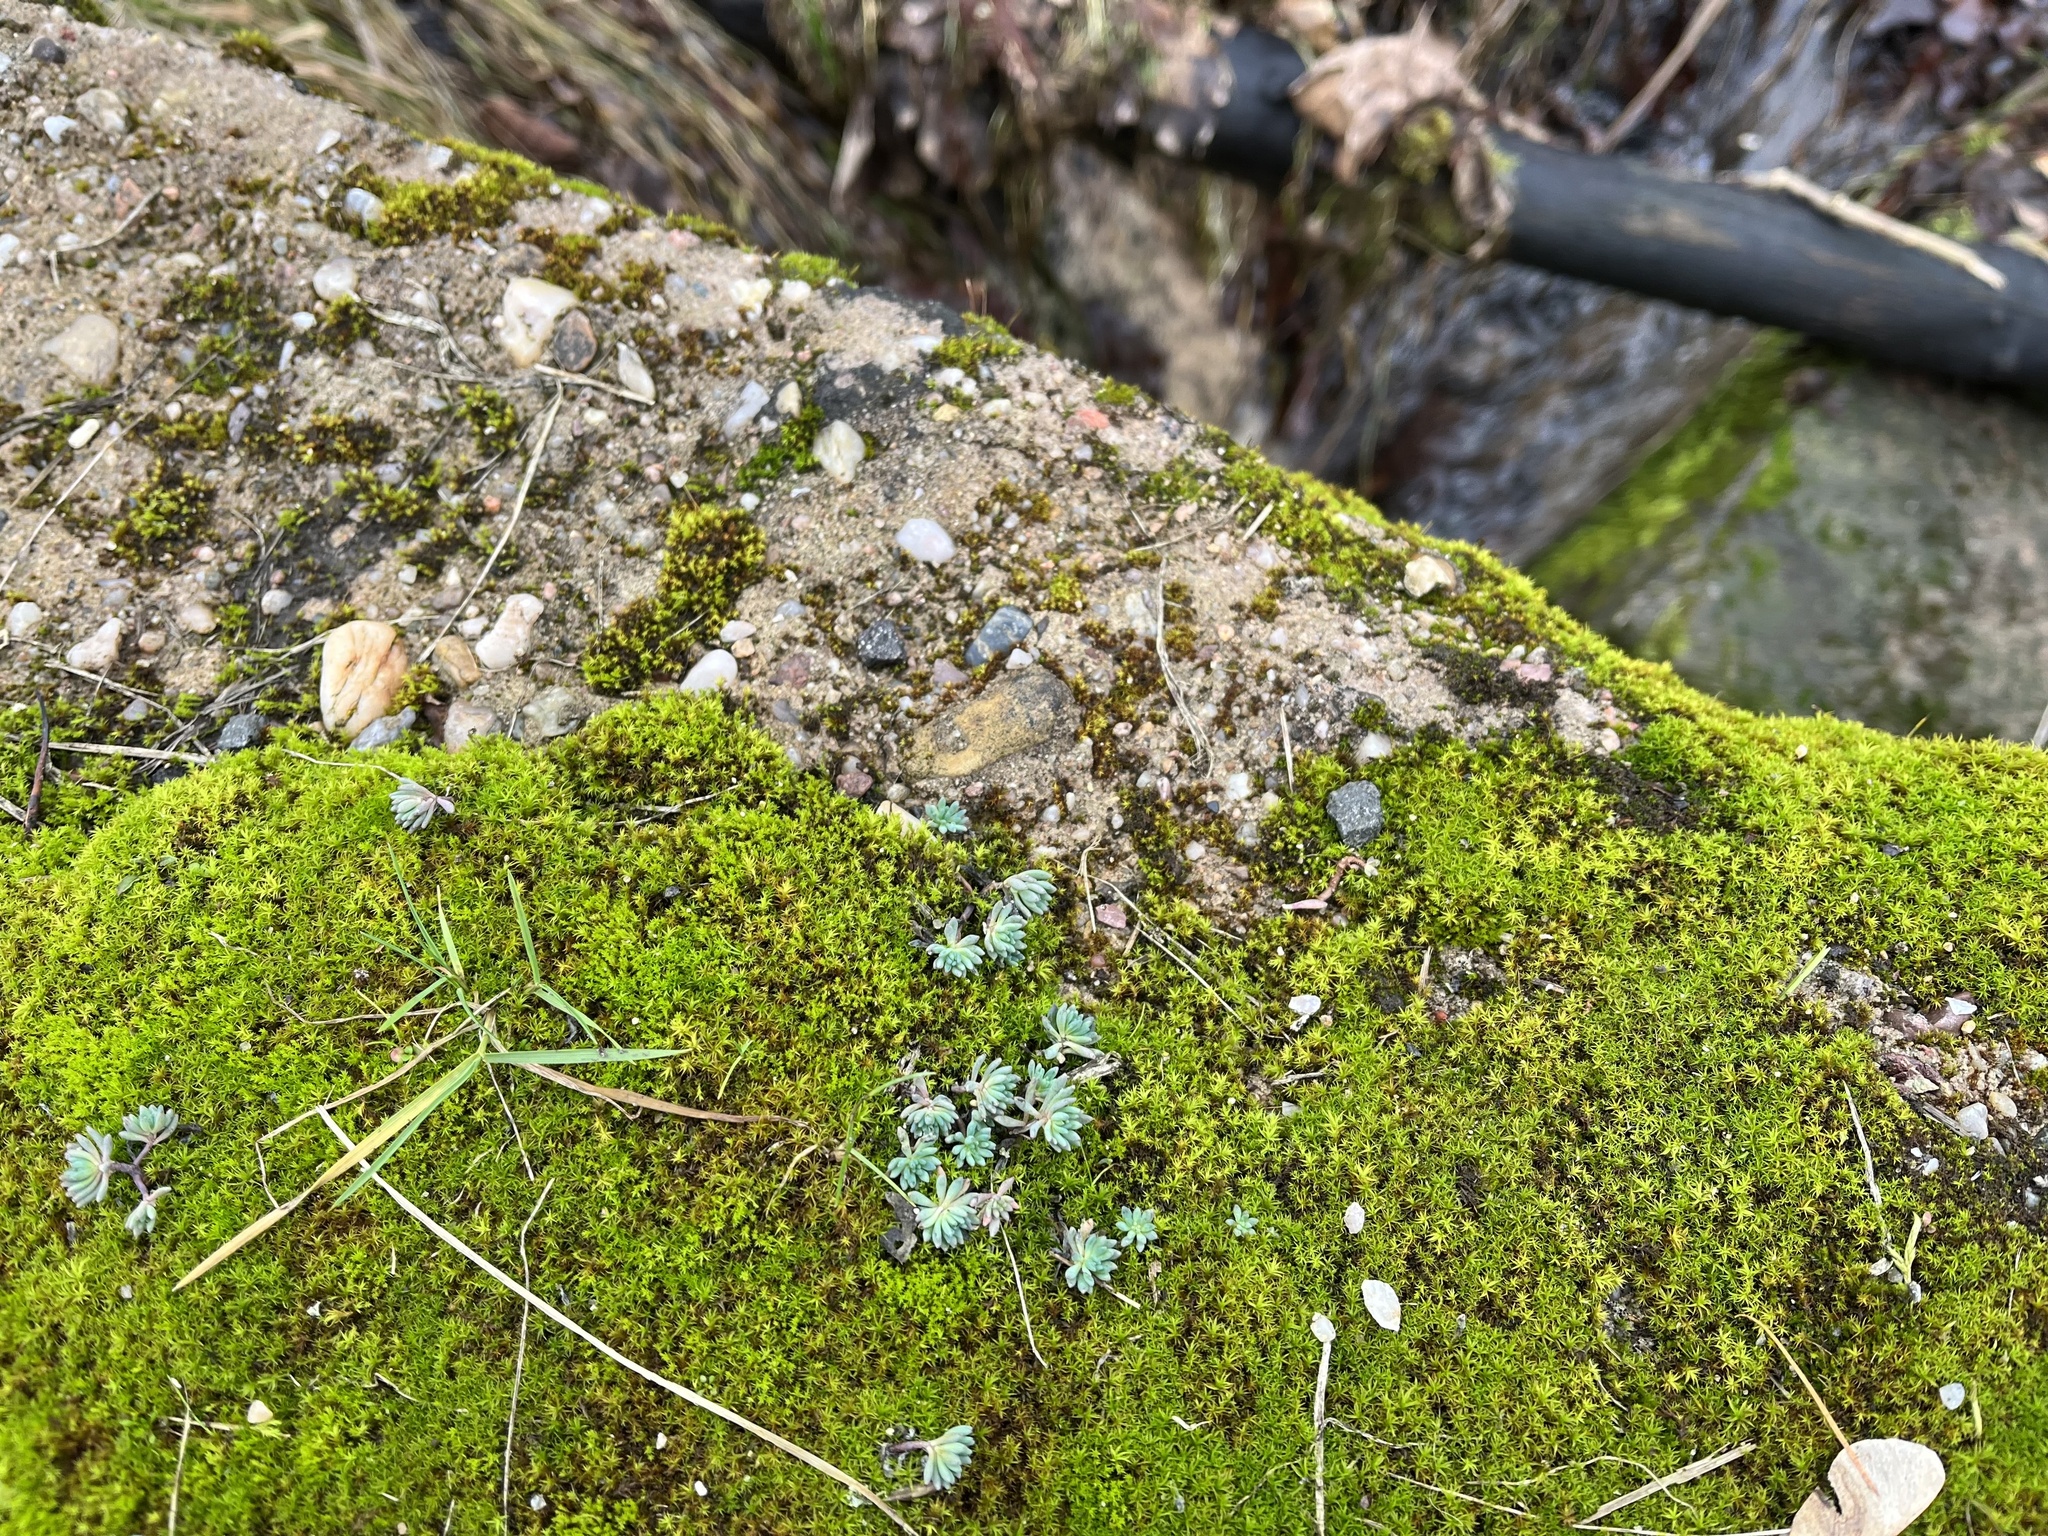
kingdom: Plantae
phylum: Tracheophyta
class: Magnoliopsida
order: Saxifragales
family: Crassulaceae
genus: Sedum
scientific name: Sedum hispanicum
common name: Spanish stonecrop
